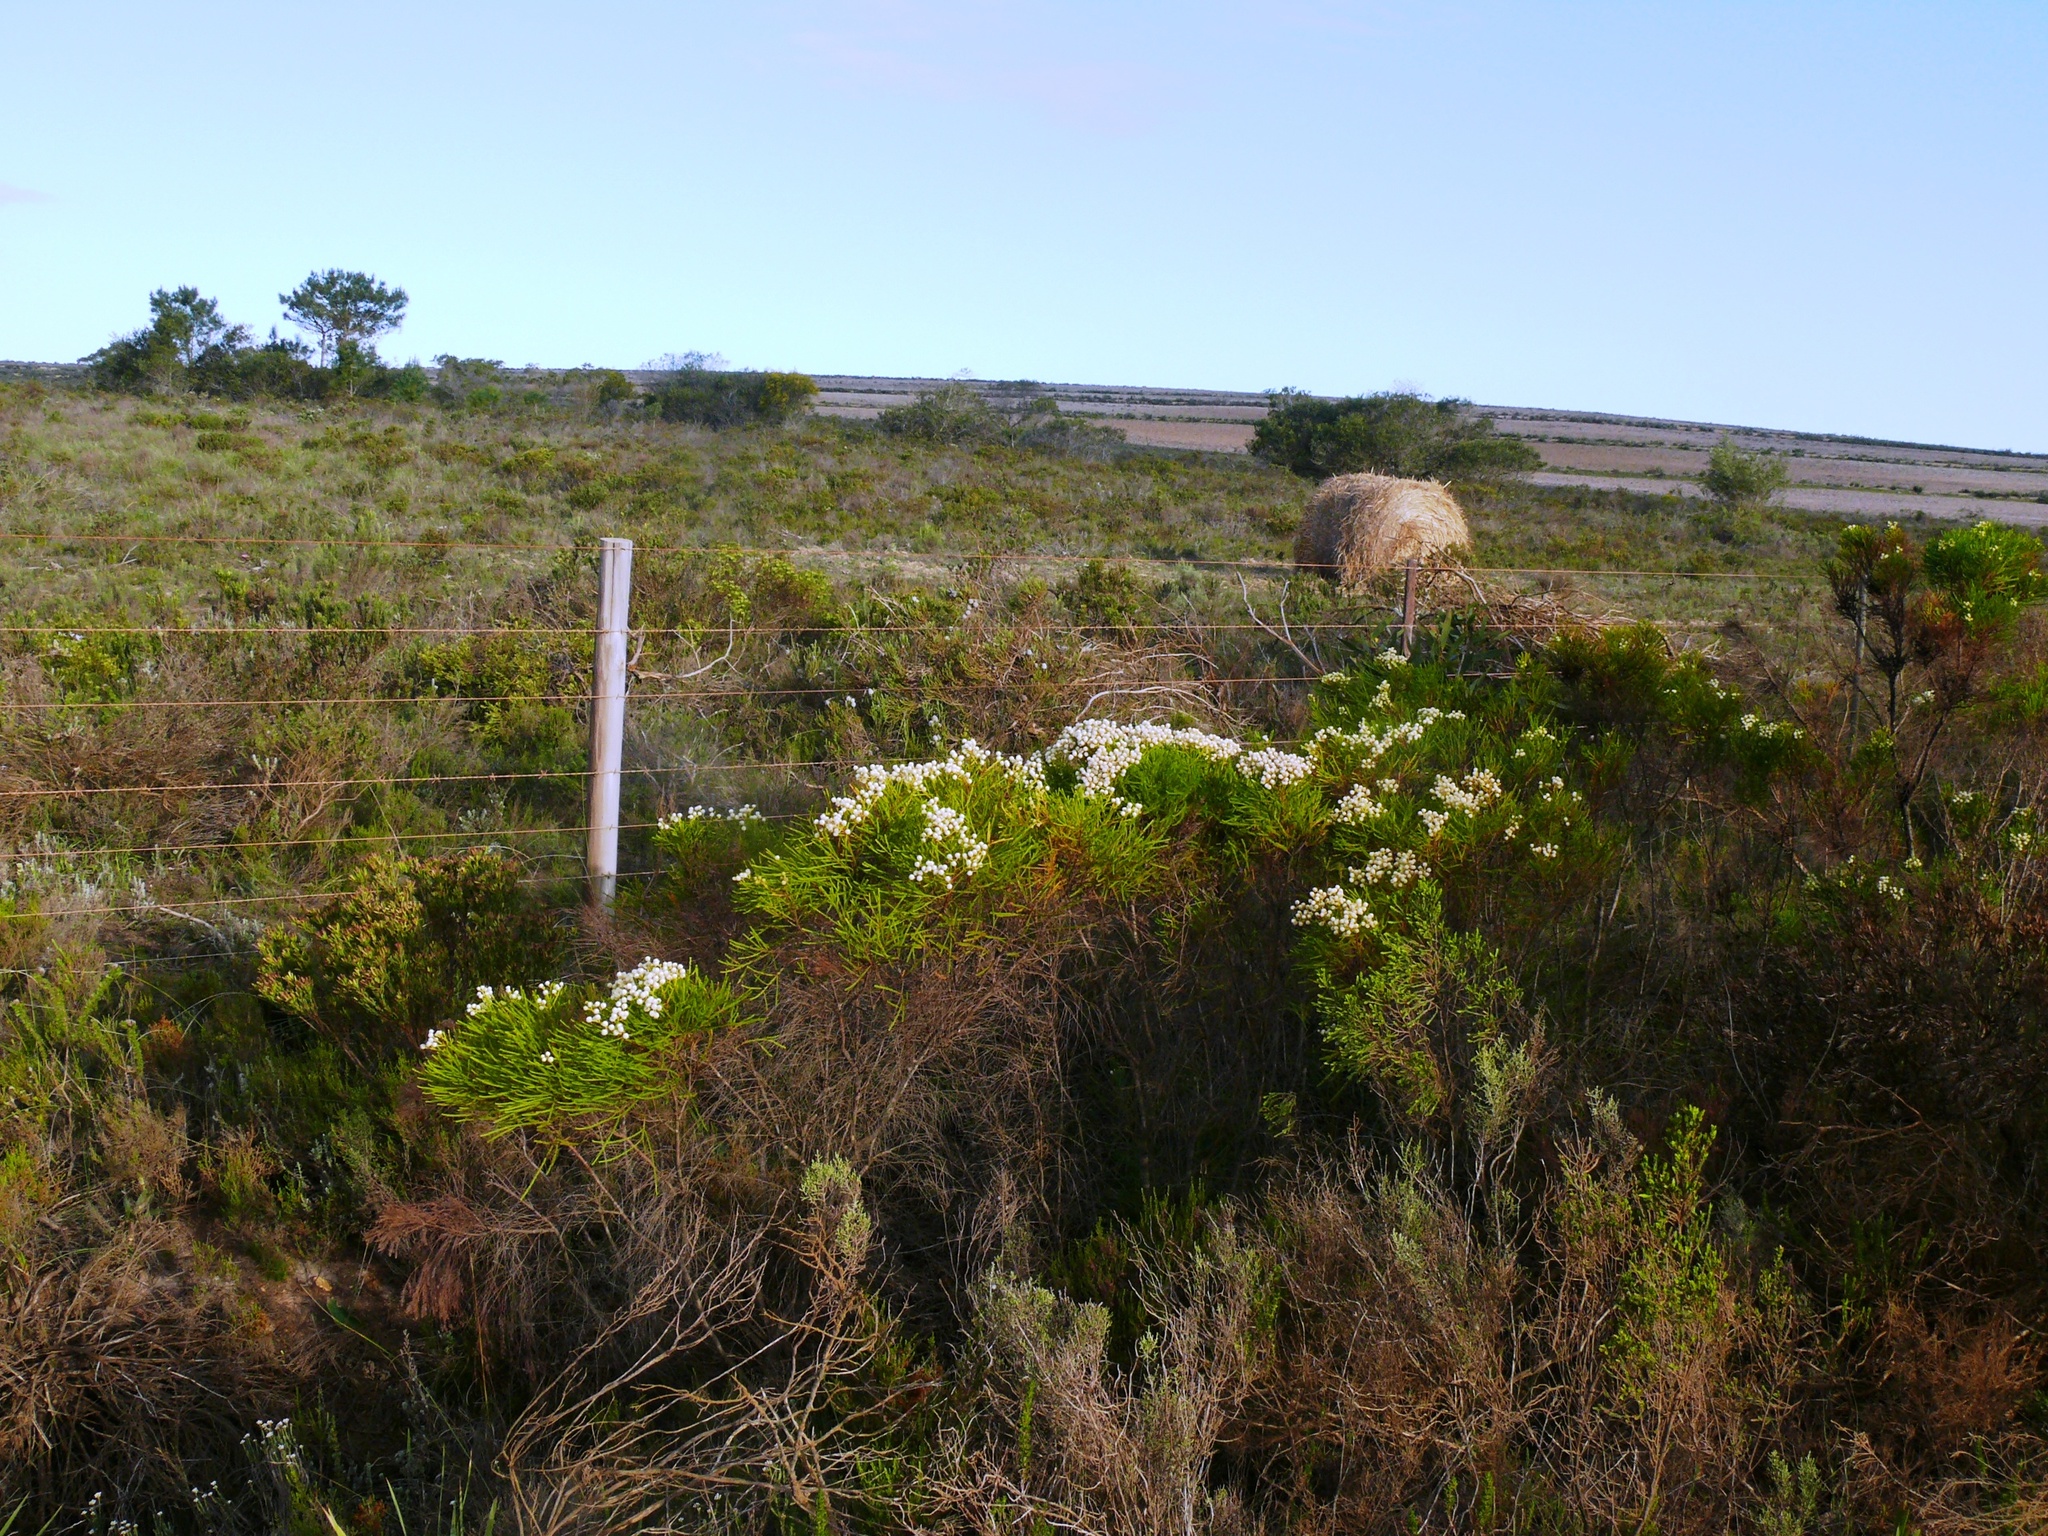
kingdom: Plantae
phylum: Tracheophyta
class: Magnoliopsida
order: Bruniales
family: Bruniaceae
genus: Berzelia
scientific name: Berzelia lanuginosa
